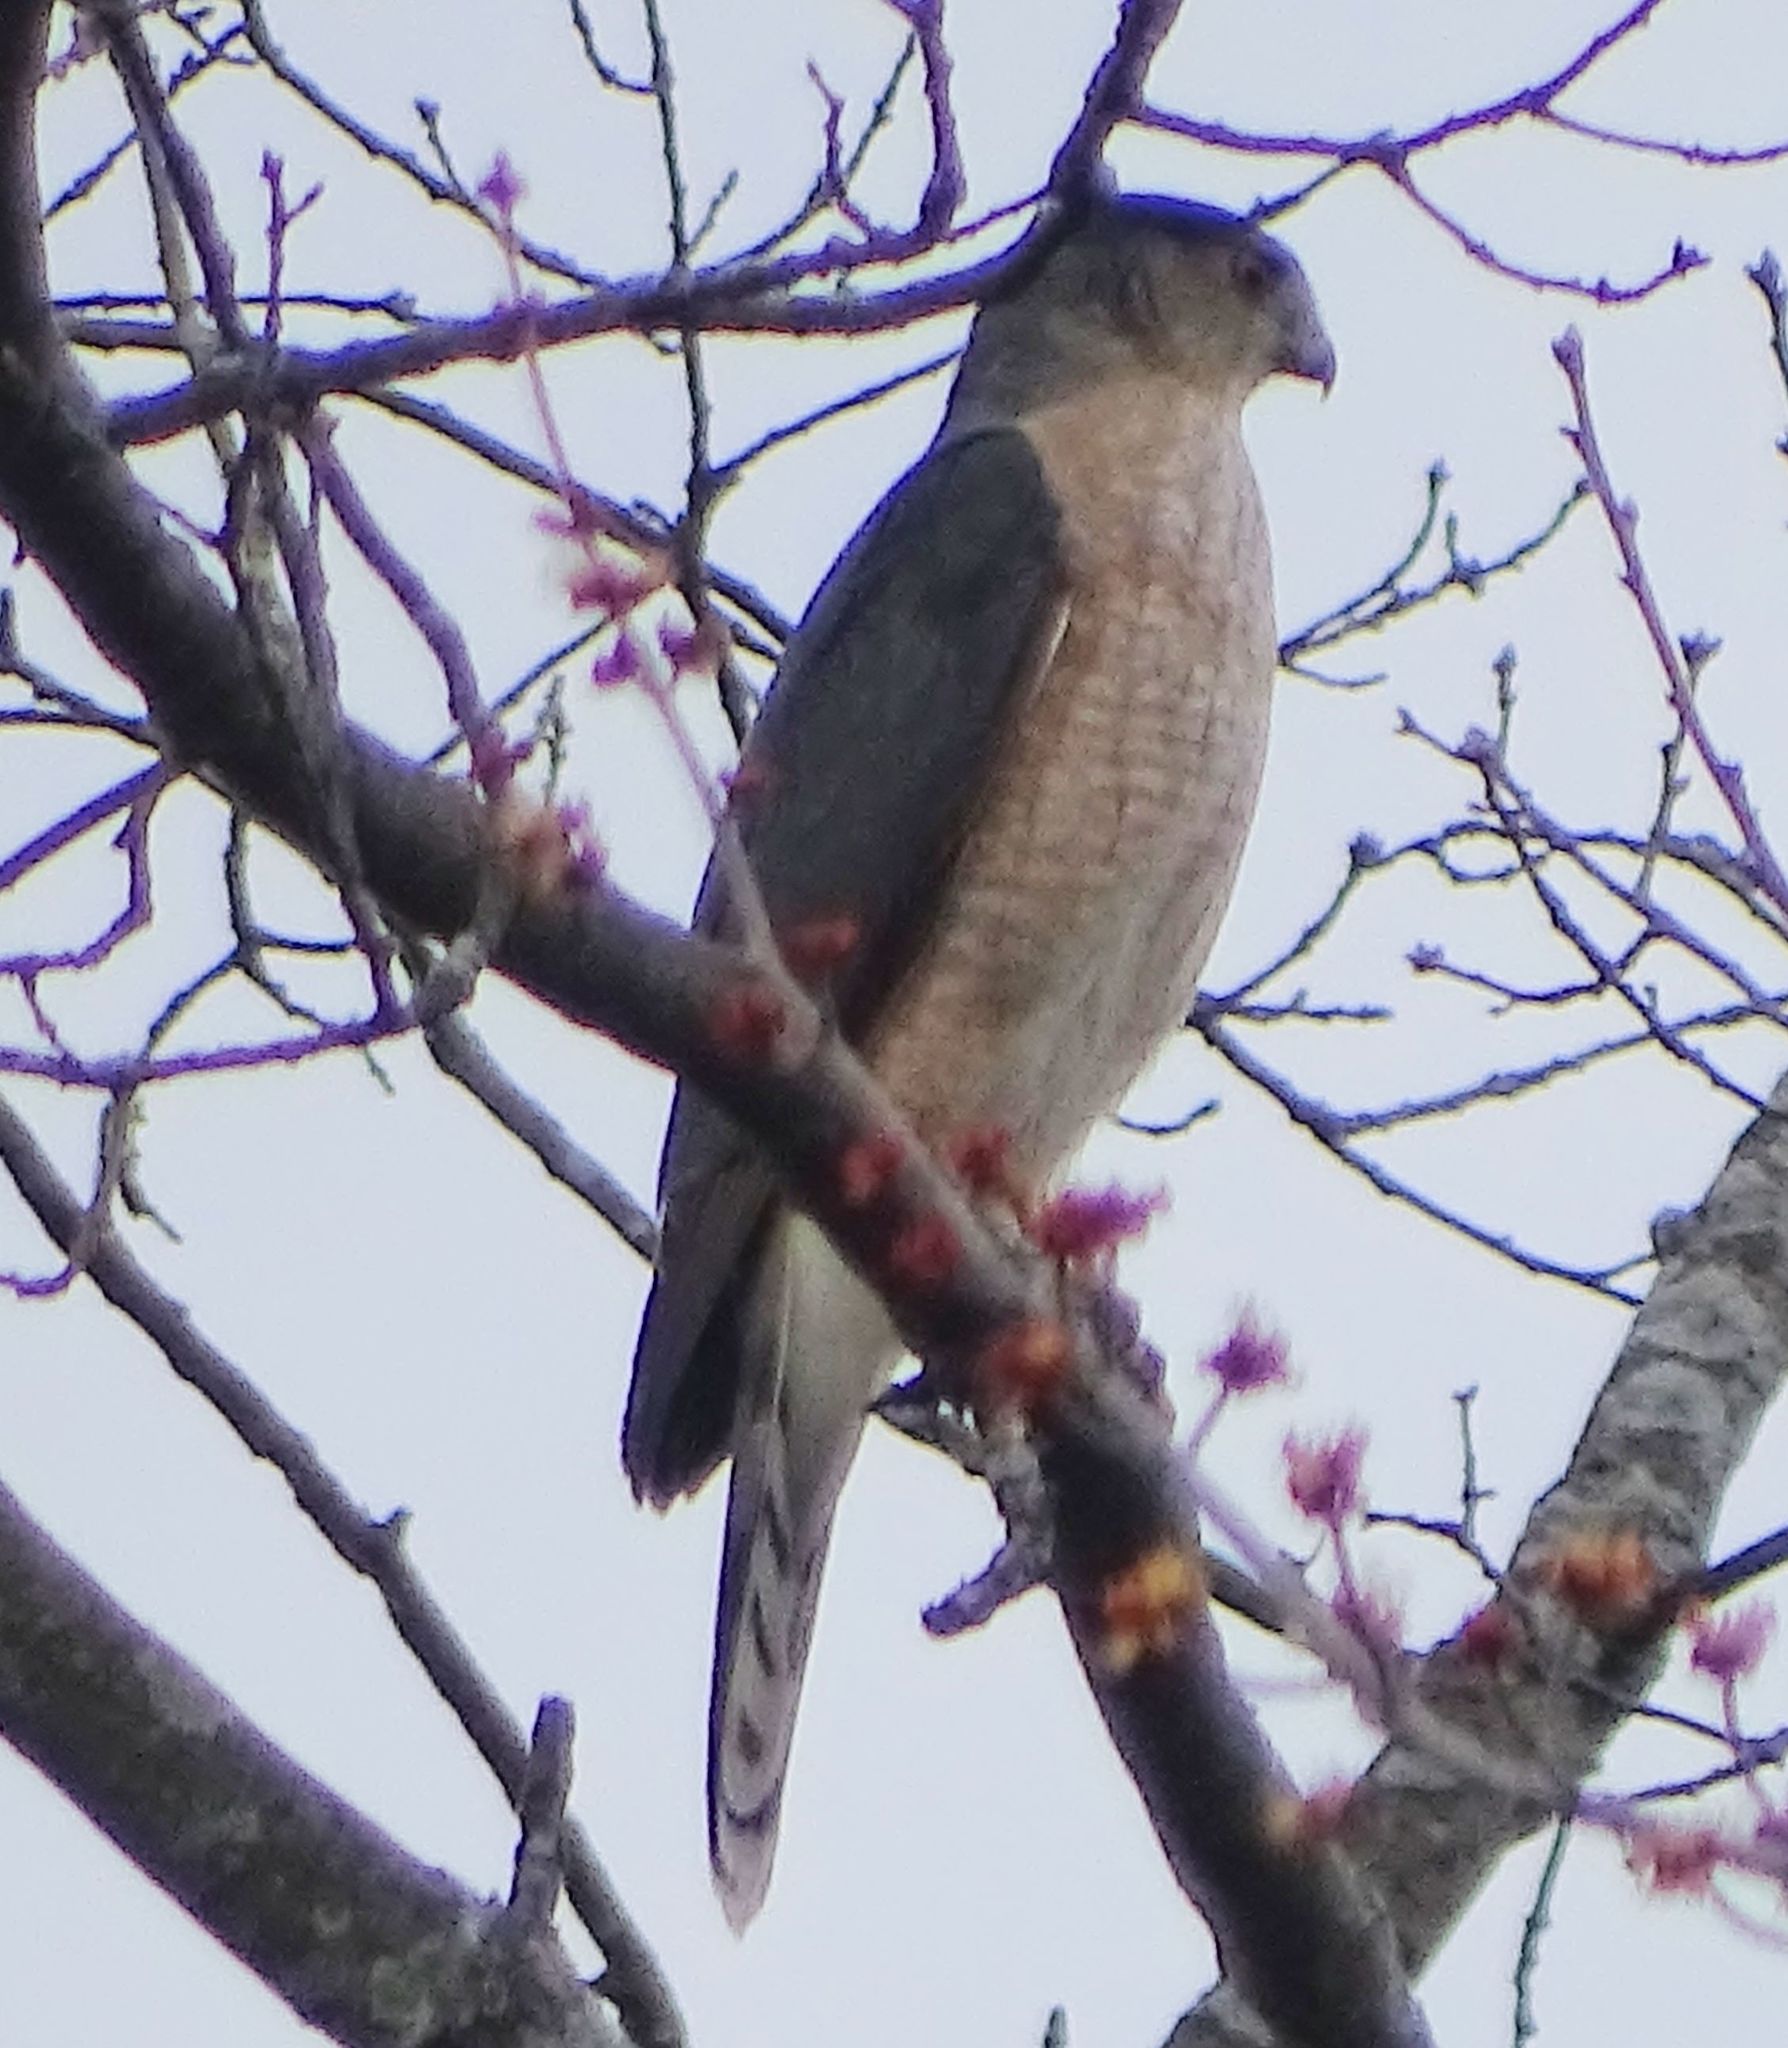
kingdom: Animalia
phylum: Chordata
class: Aves
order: Accipitriformes
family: Accipitridae
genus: Accipiter
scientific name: Accipiter cooperii
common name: Cooper's hawk
